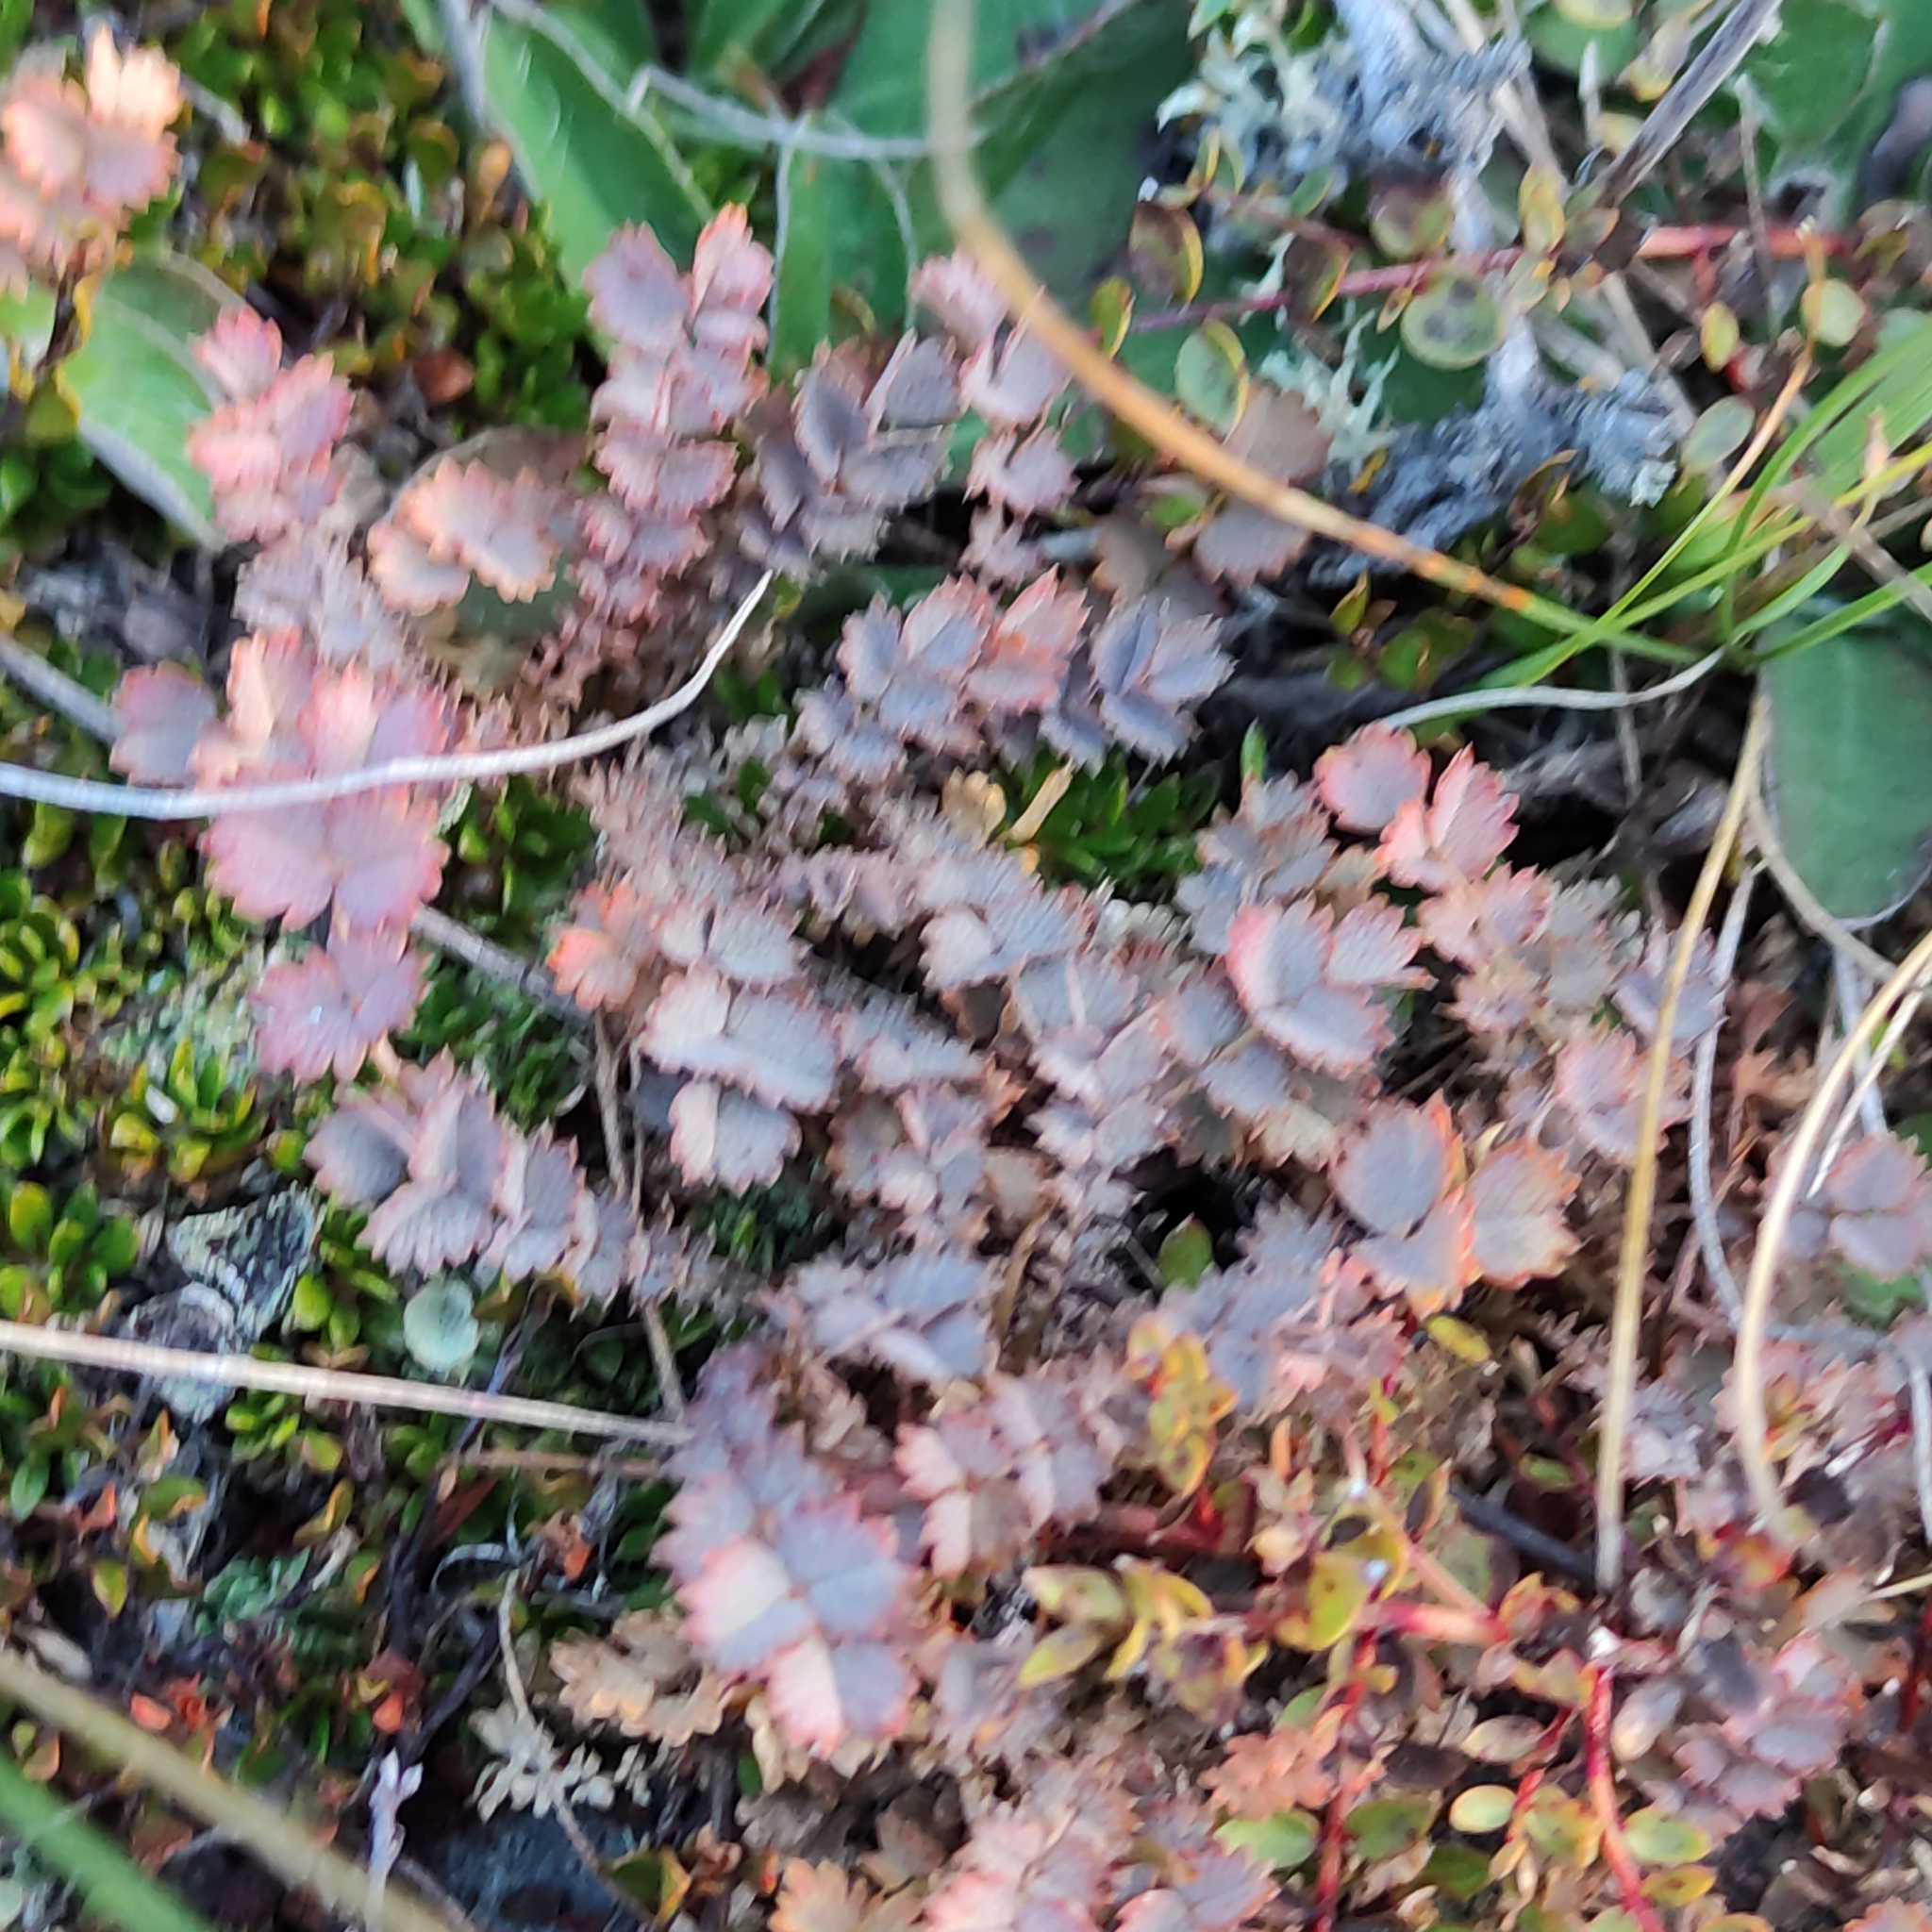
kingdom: Plantae
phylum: Tracheophyta
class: Magnoliopsida
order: Rosales
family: Rosaceae
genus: Acaena
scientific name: Acaena inermis
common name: Spineless acaena
